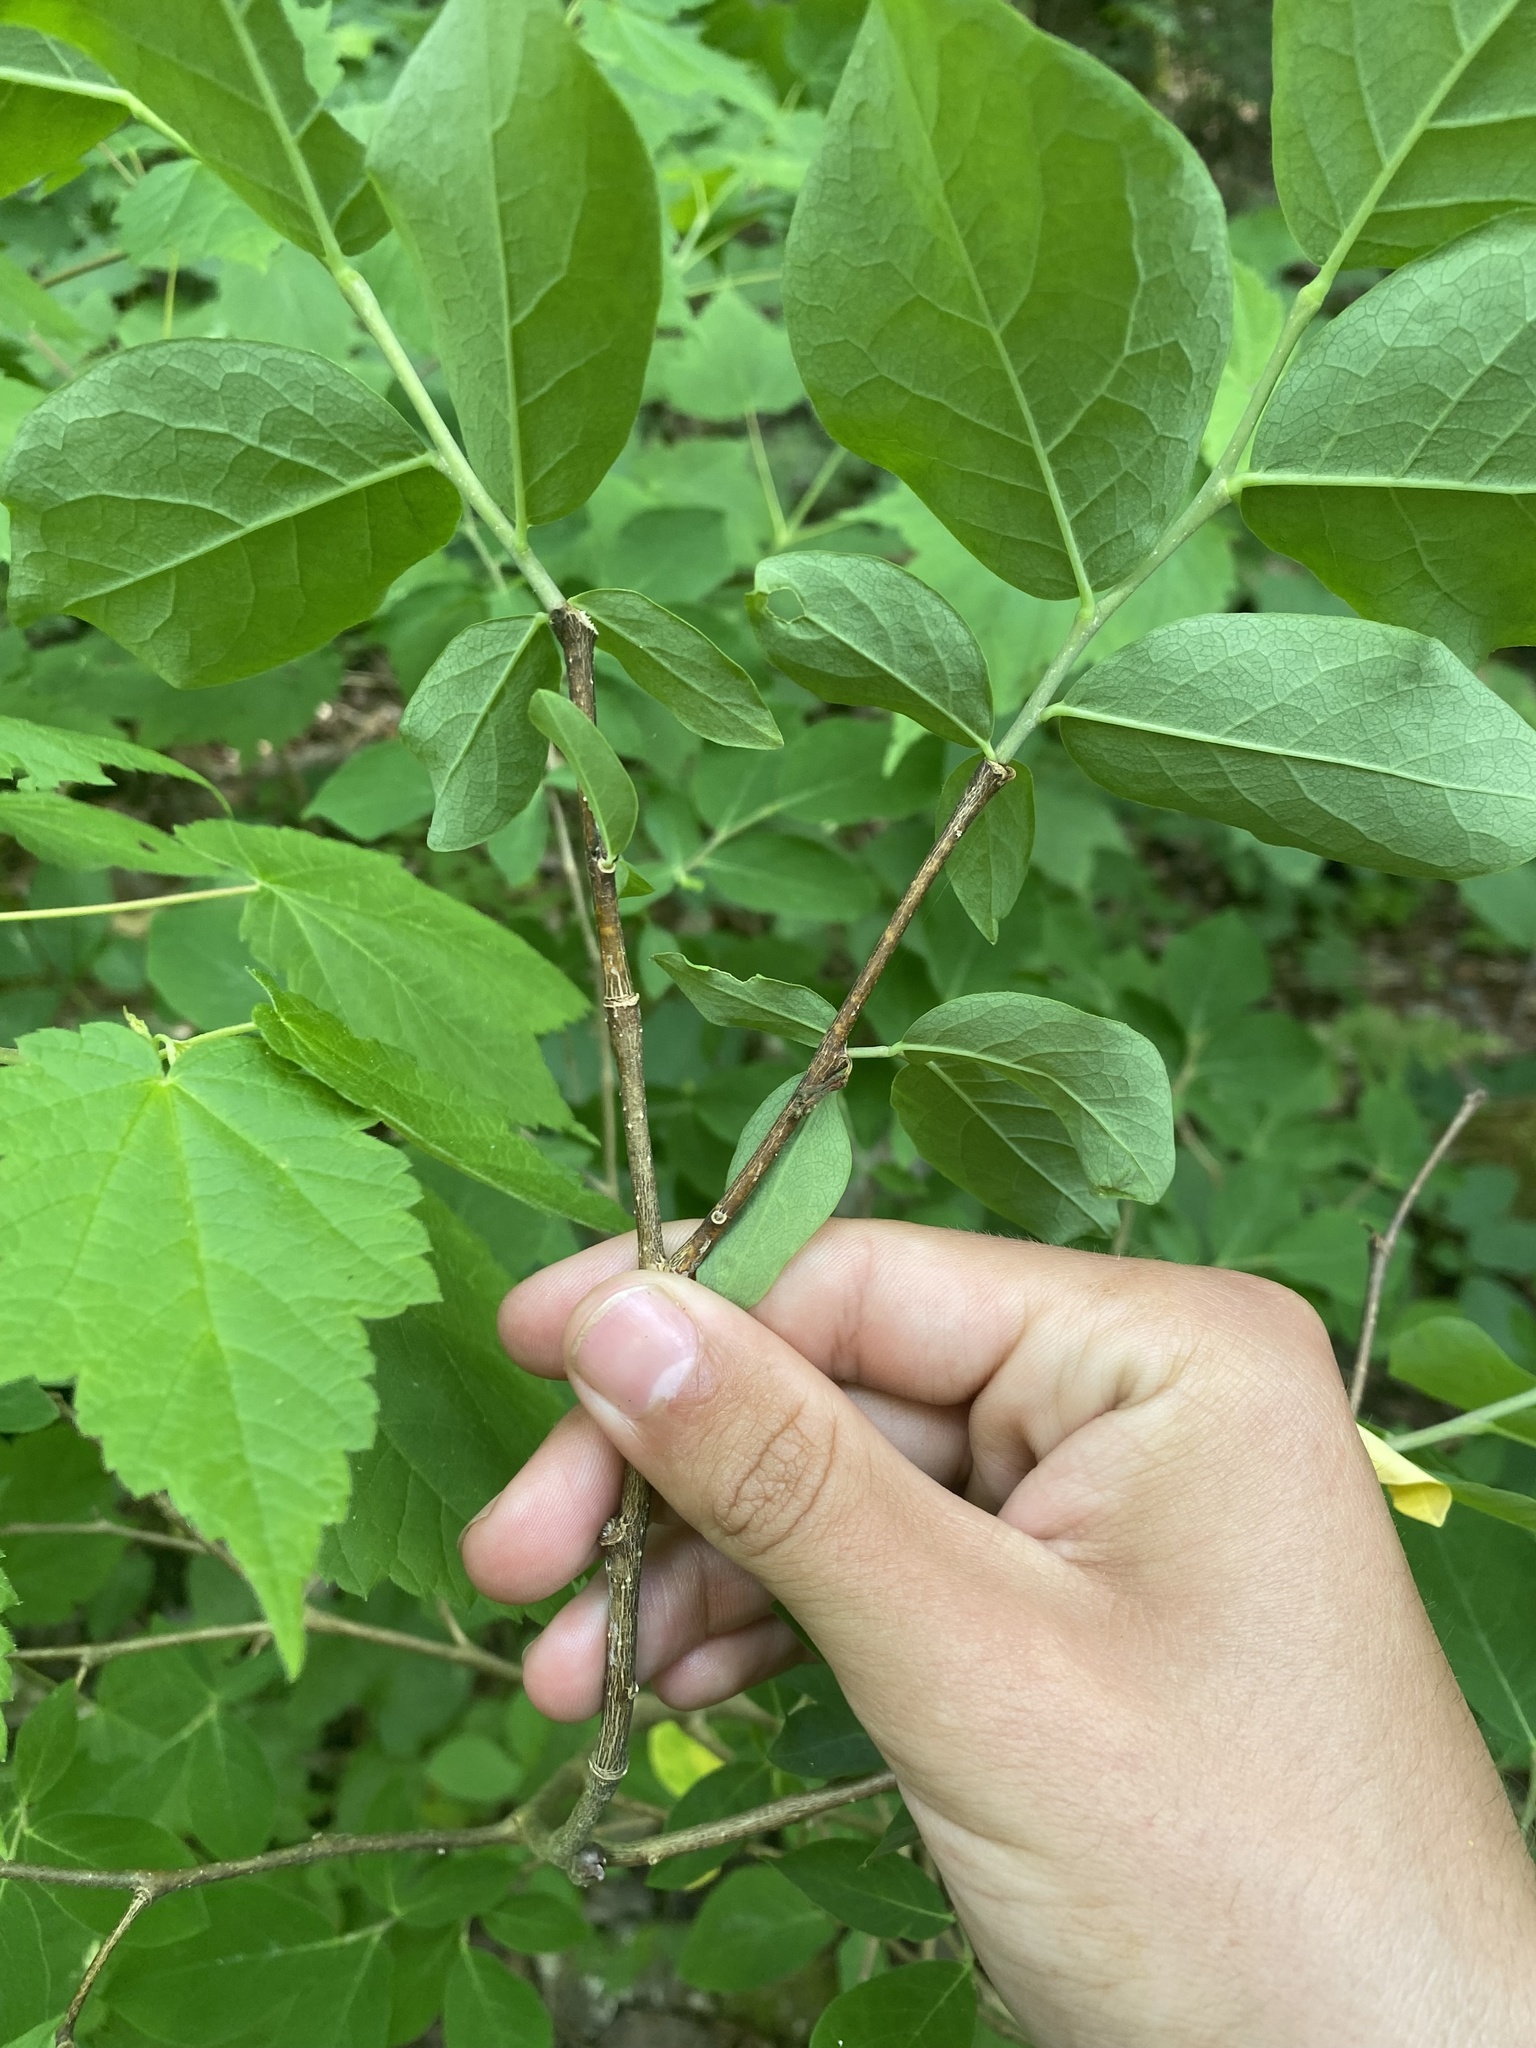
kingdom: Plantae
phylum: Tracheophyta
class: Magnoliopsida
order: Malvales
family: Thymelaeaceae
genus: Dirca
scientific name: Dirca palustris
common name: Leatherwood
